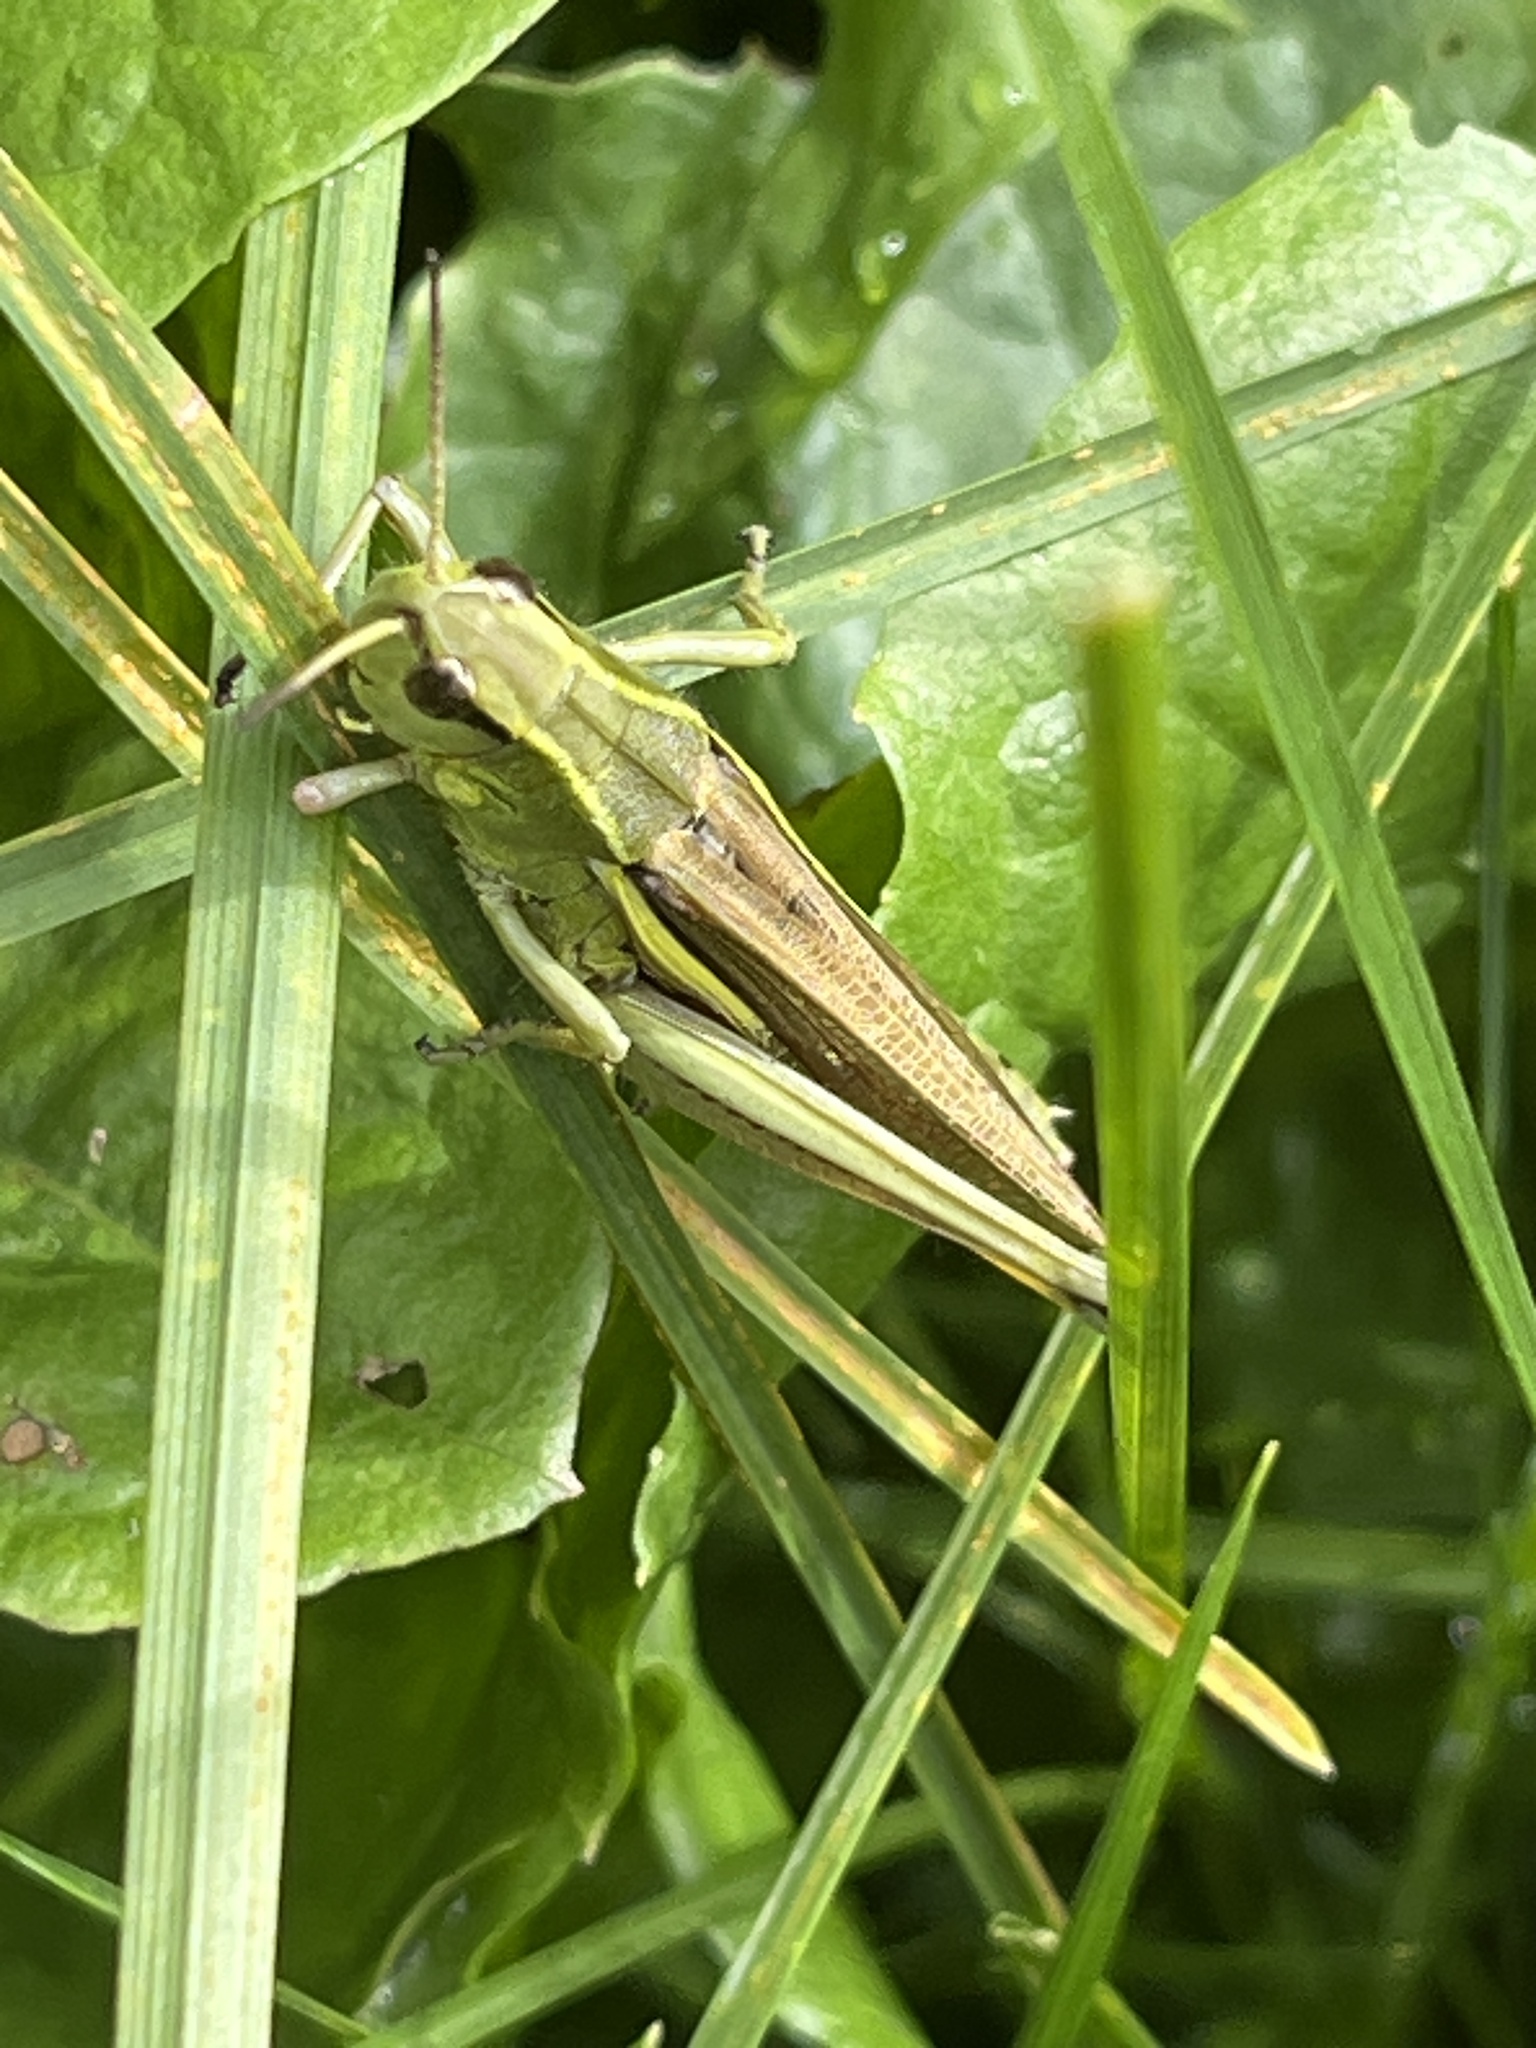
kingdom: Animalia
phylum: Arthropoda
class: Insecta
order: Orthoptera
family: Acrididae
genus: Stethophyma
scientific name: Stethophyma grossum
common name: Large marsh grasshopper
